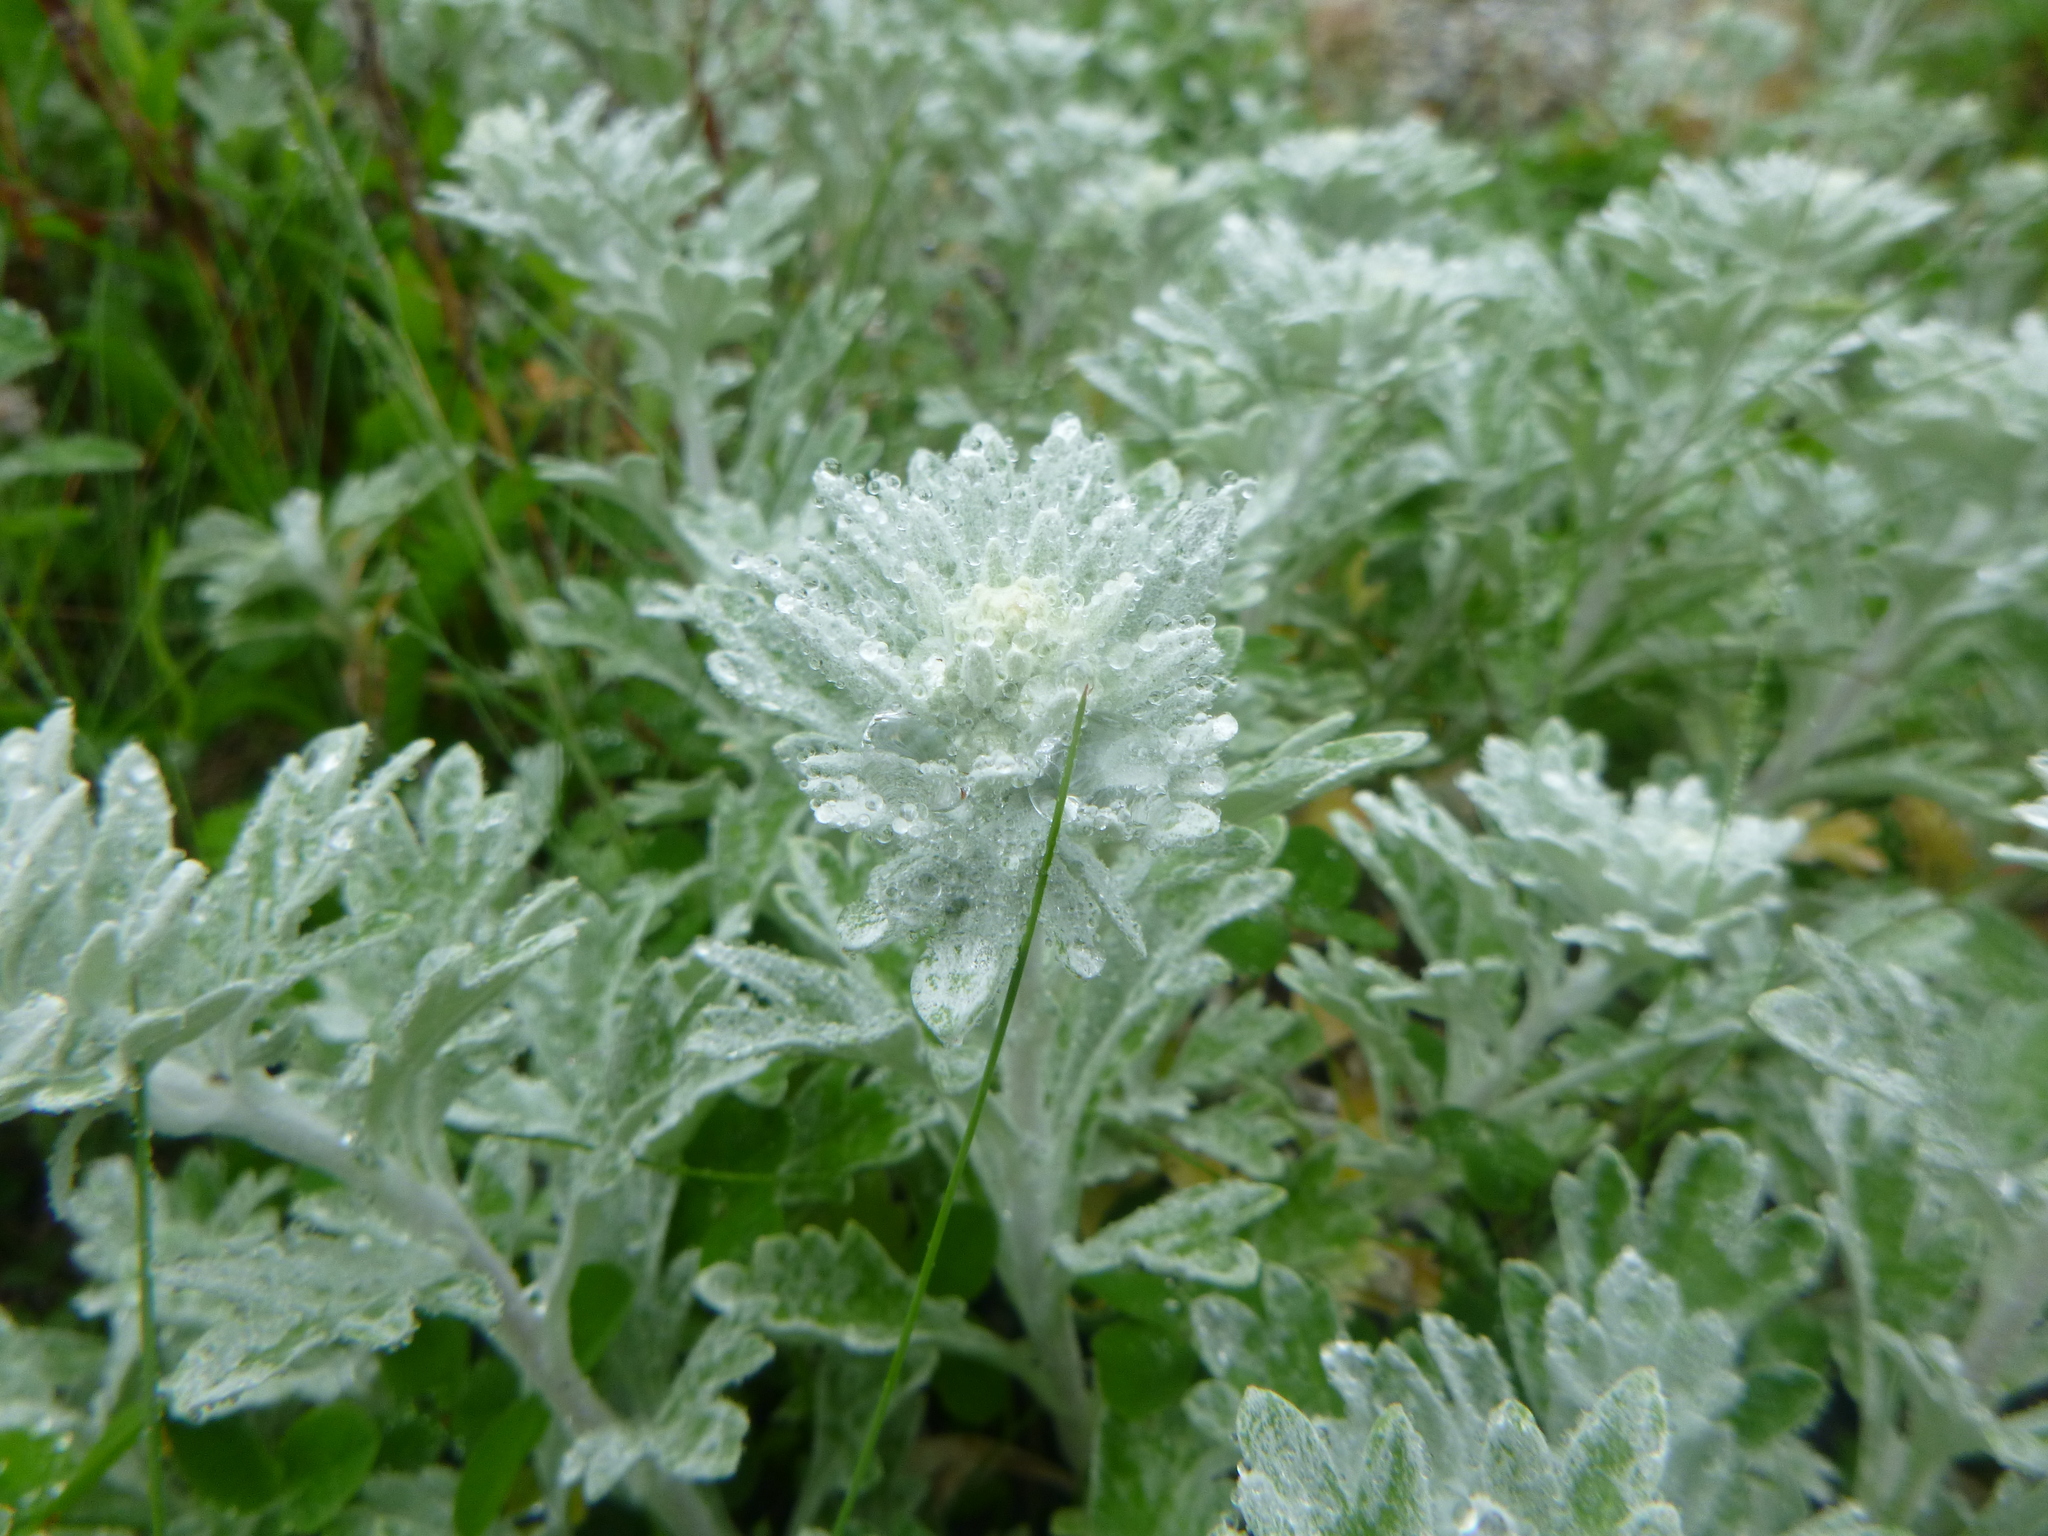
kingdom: Plantae
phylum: Tracheophyta
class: Magnoliopsida
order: Asterales
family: Asteraceae
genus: Artemisia
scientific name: Artemisia stelleriana
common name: Beach wormwood
